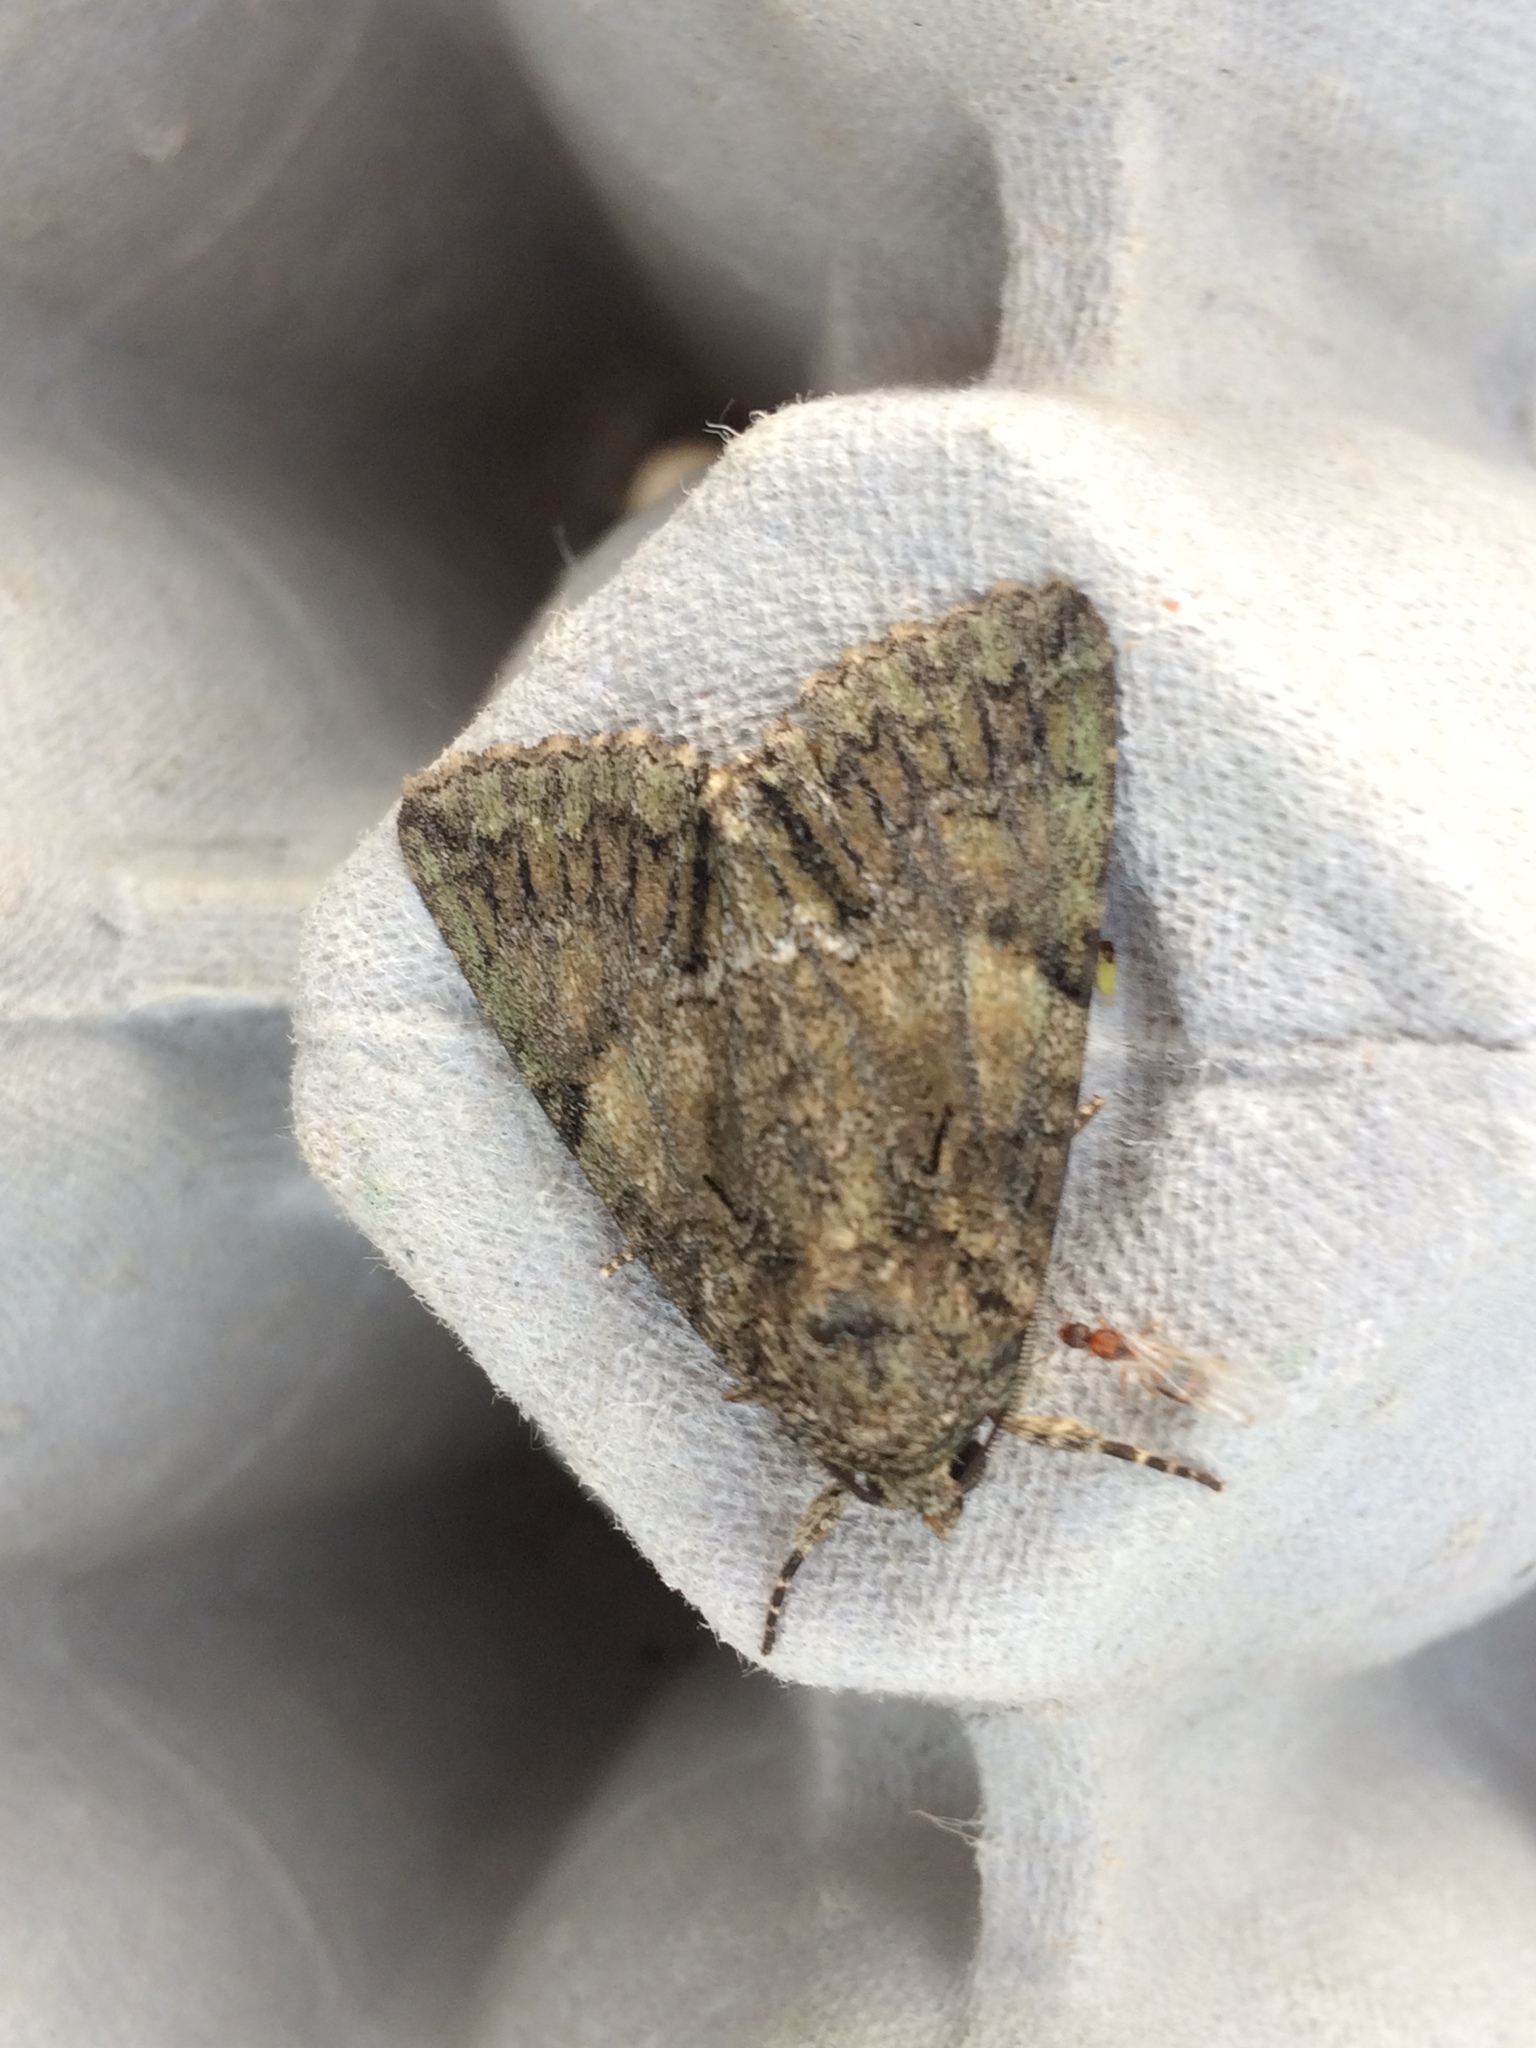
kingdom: Animalia
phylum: Arthropoda
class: Insecta
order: Lepidoptera
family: Noctuidae
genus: Polyphaenis
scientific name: Polyphaenis sericata
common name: Guernsey underwing
